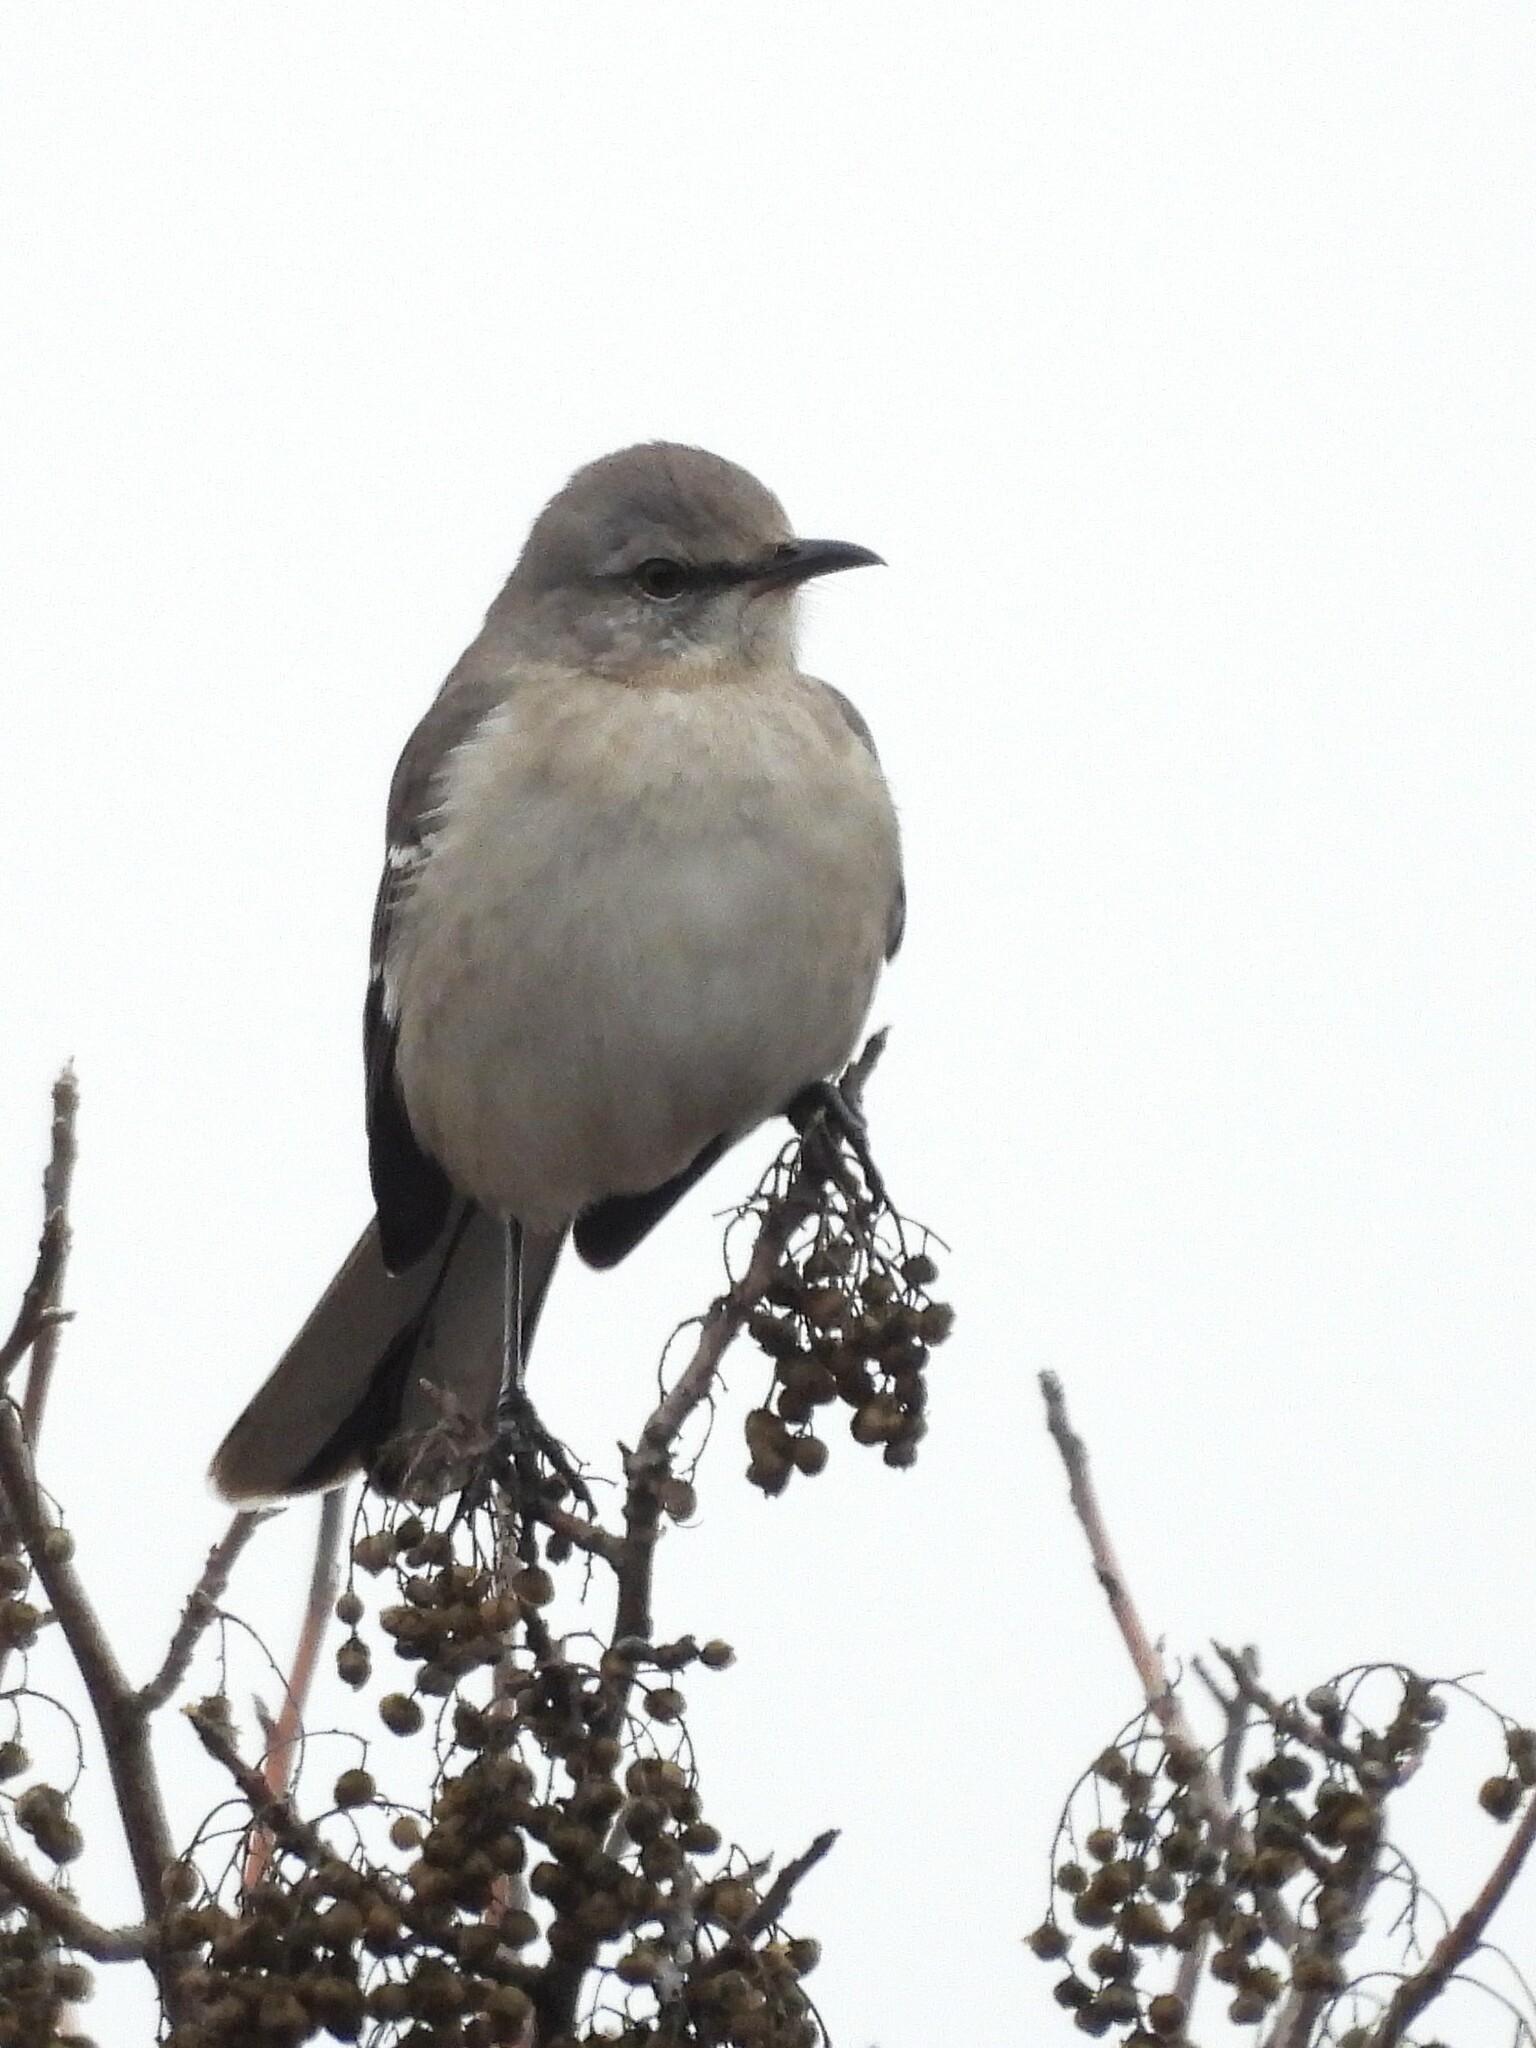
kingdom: Animalia
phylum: Chordata
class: Aves
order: Passeriformes
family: Mimidae
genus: Mimus
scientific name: Mimus polyglottos
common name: Northern mockingbird
